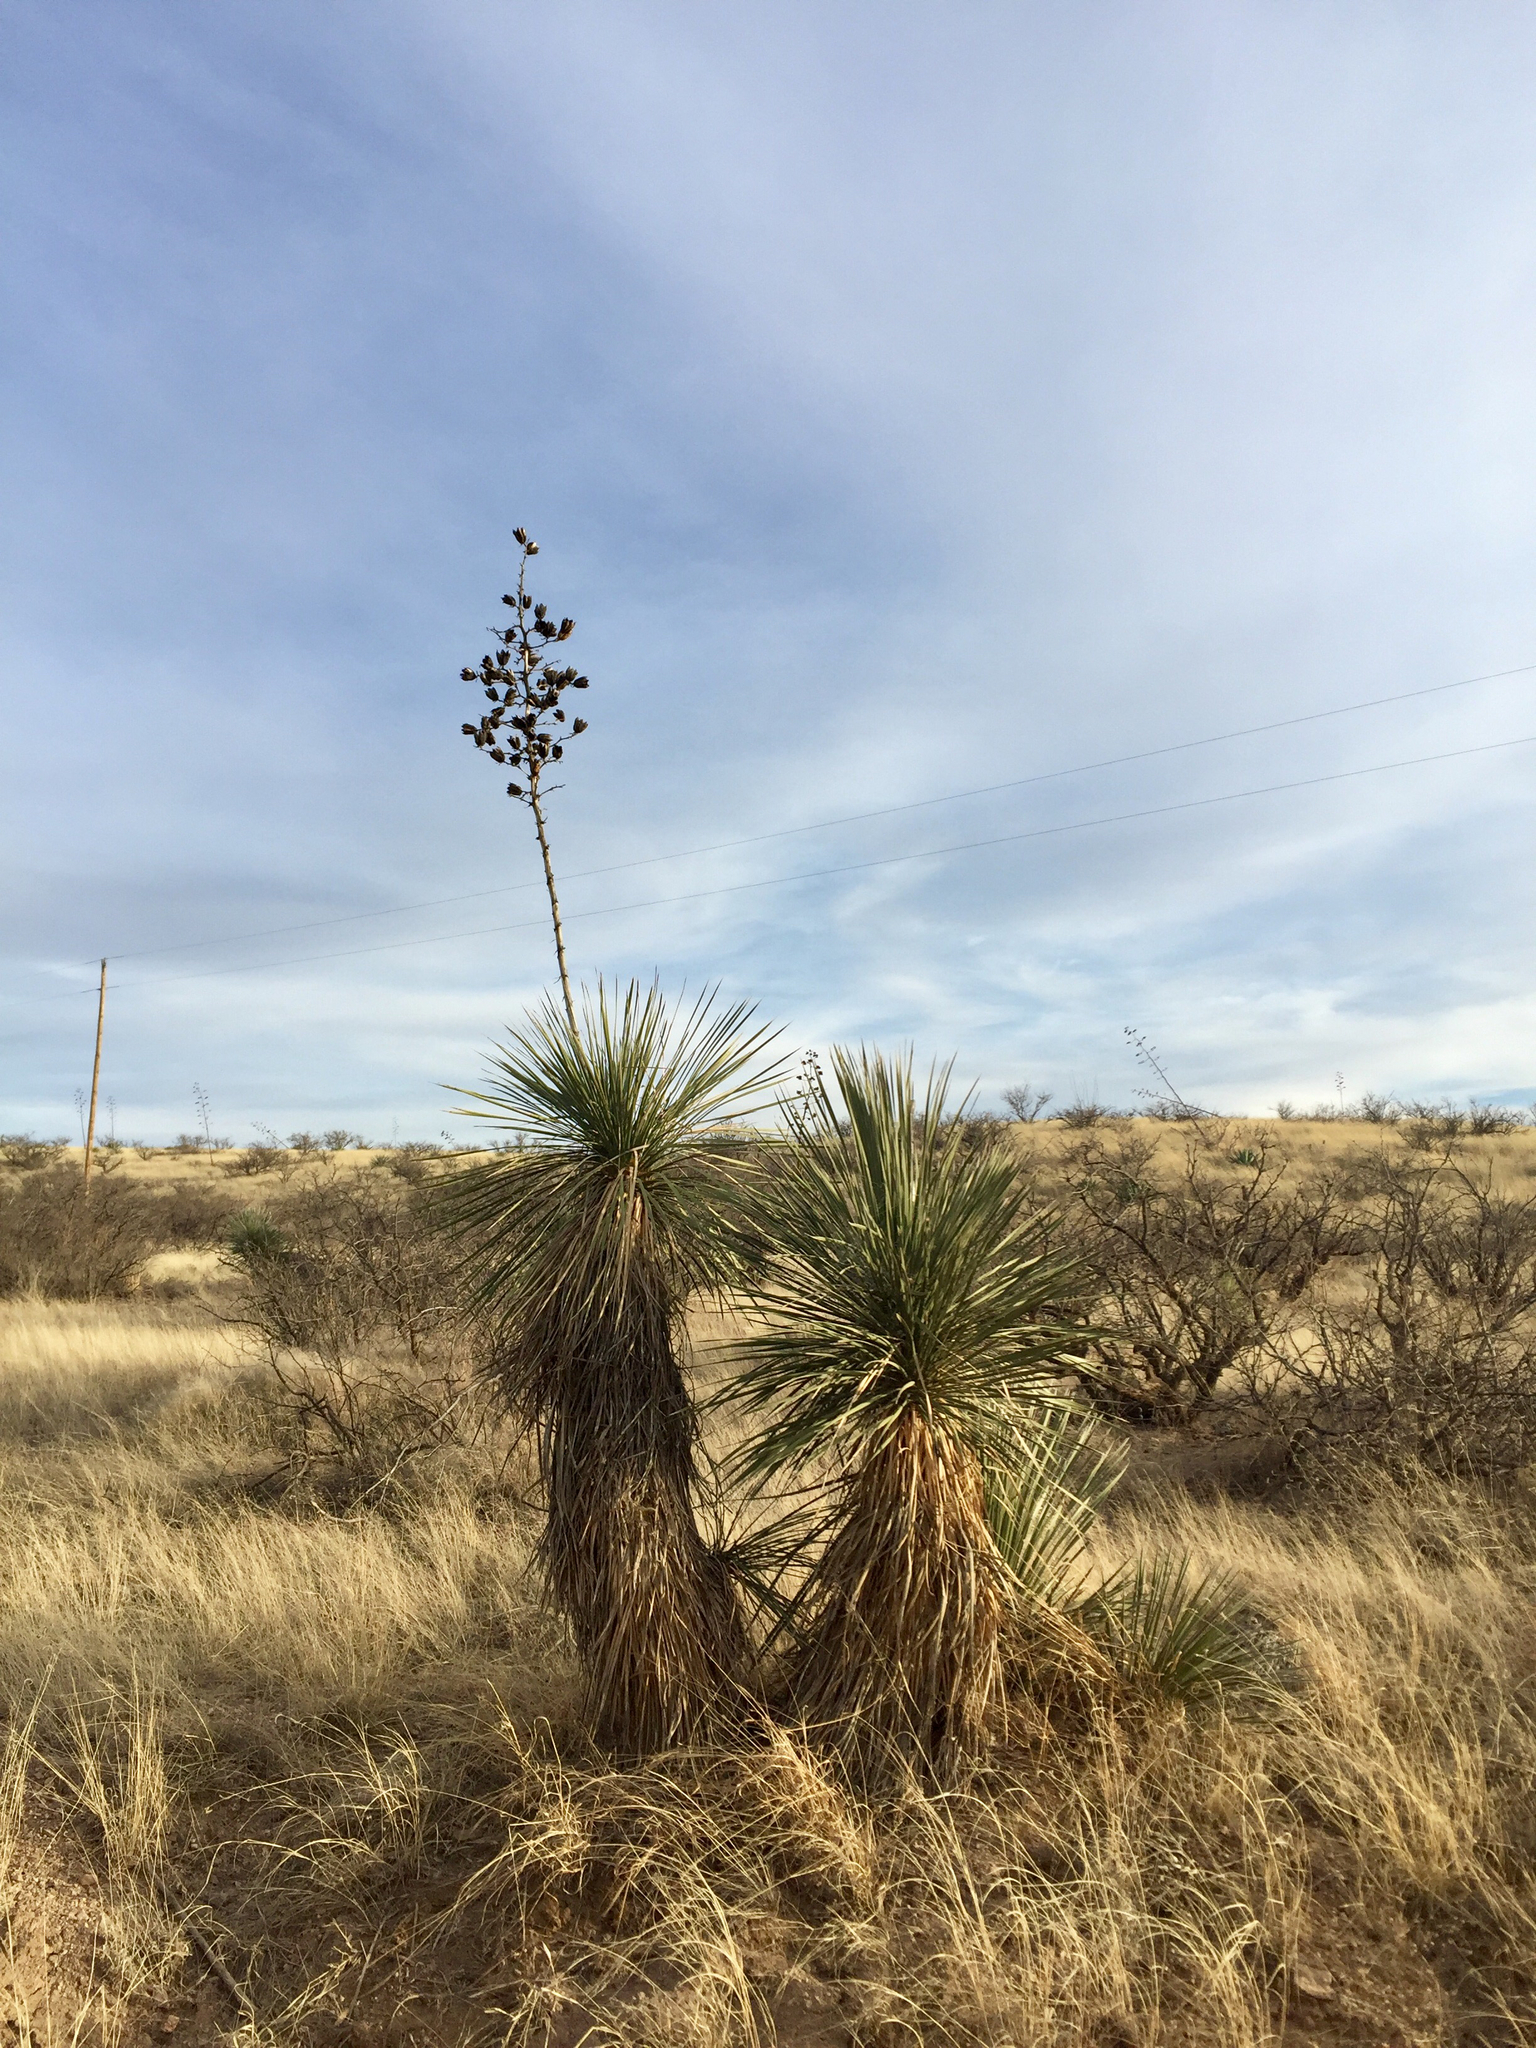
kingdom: Plantae
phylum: Tracheophyta
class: Liliopsida
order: Asparagales
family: Asparagaceae
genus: Yucca
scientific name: Yucca elata
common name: Palmella
